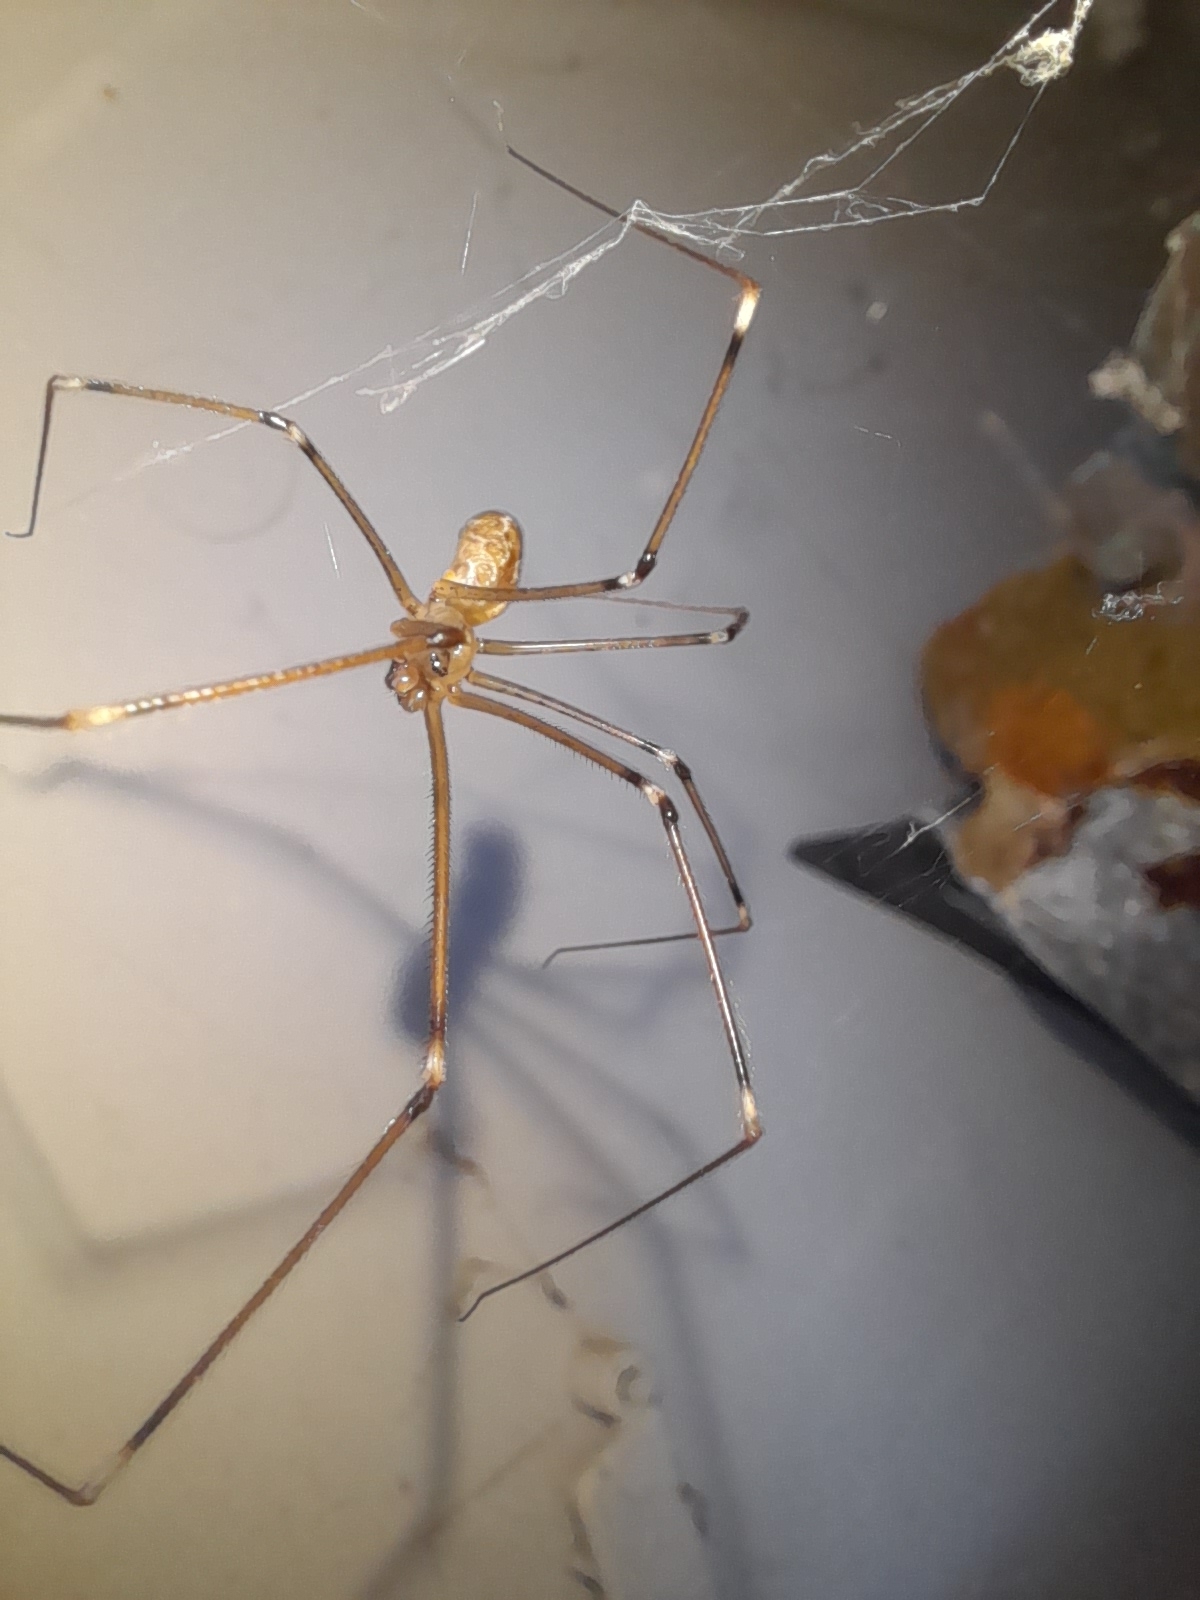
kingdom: Animalia
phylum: Arthropoda
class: Arachnida
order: Araneae
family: Pholcidae
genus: Holocnemus
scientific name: Holocnemus pluchei
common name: Marbled cellar spider
